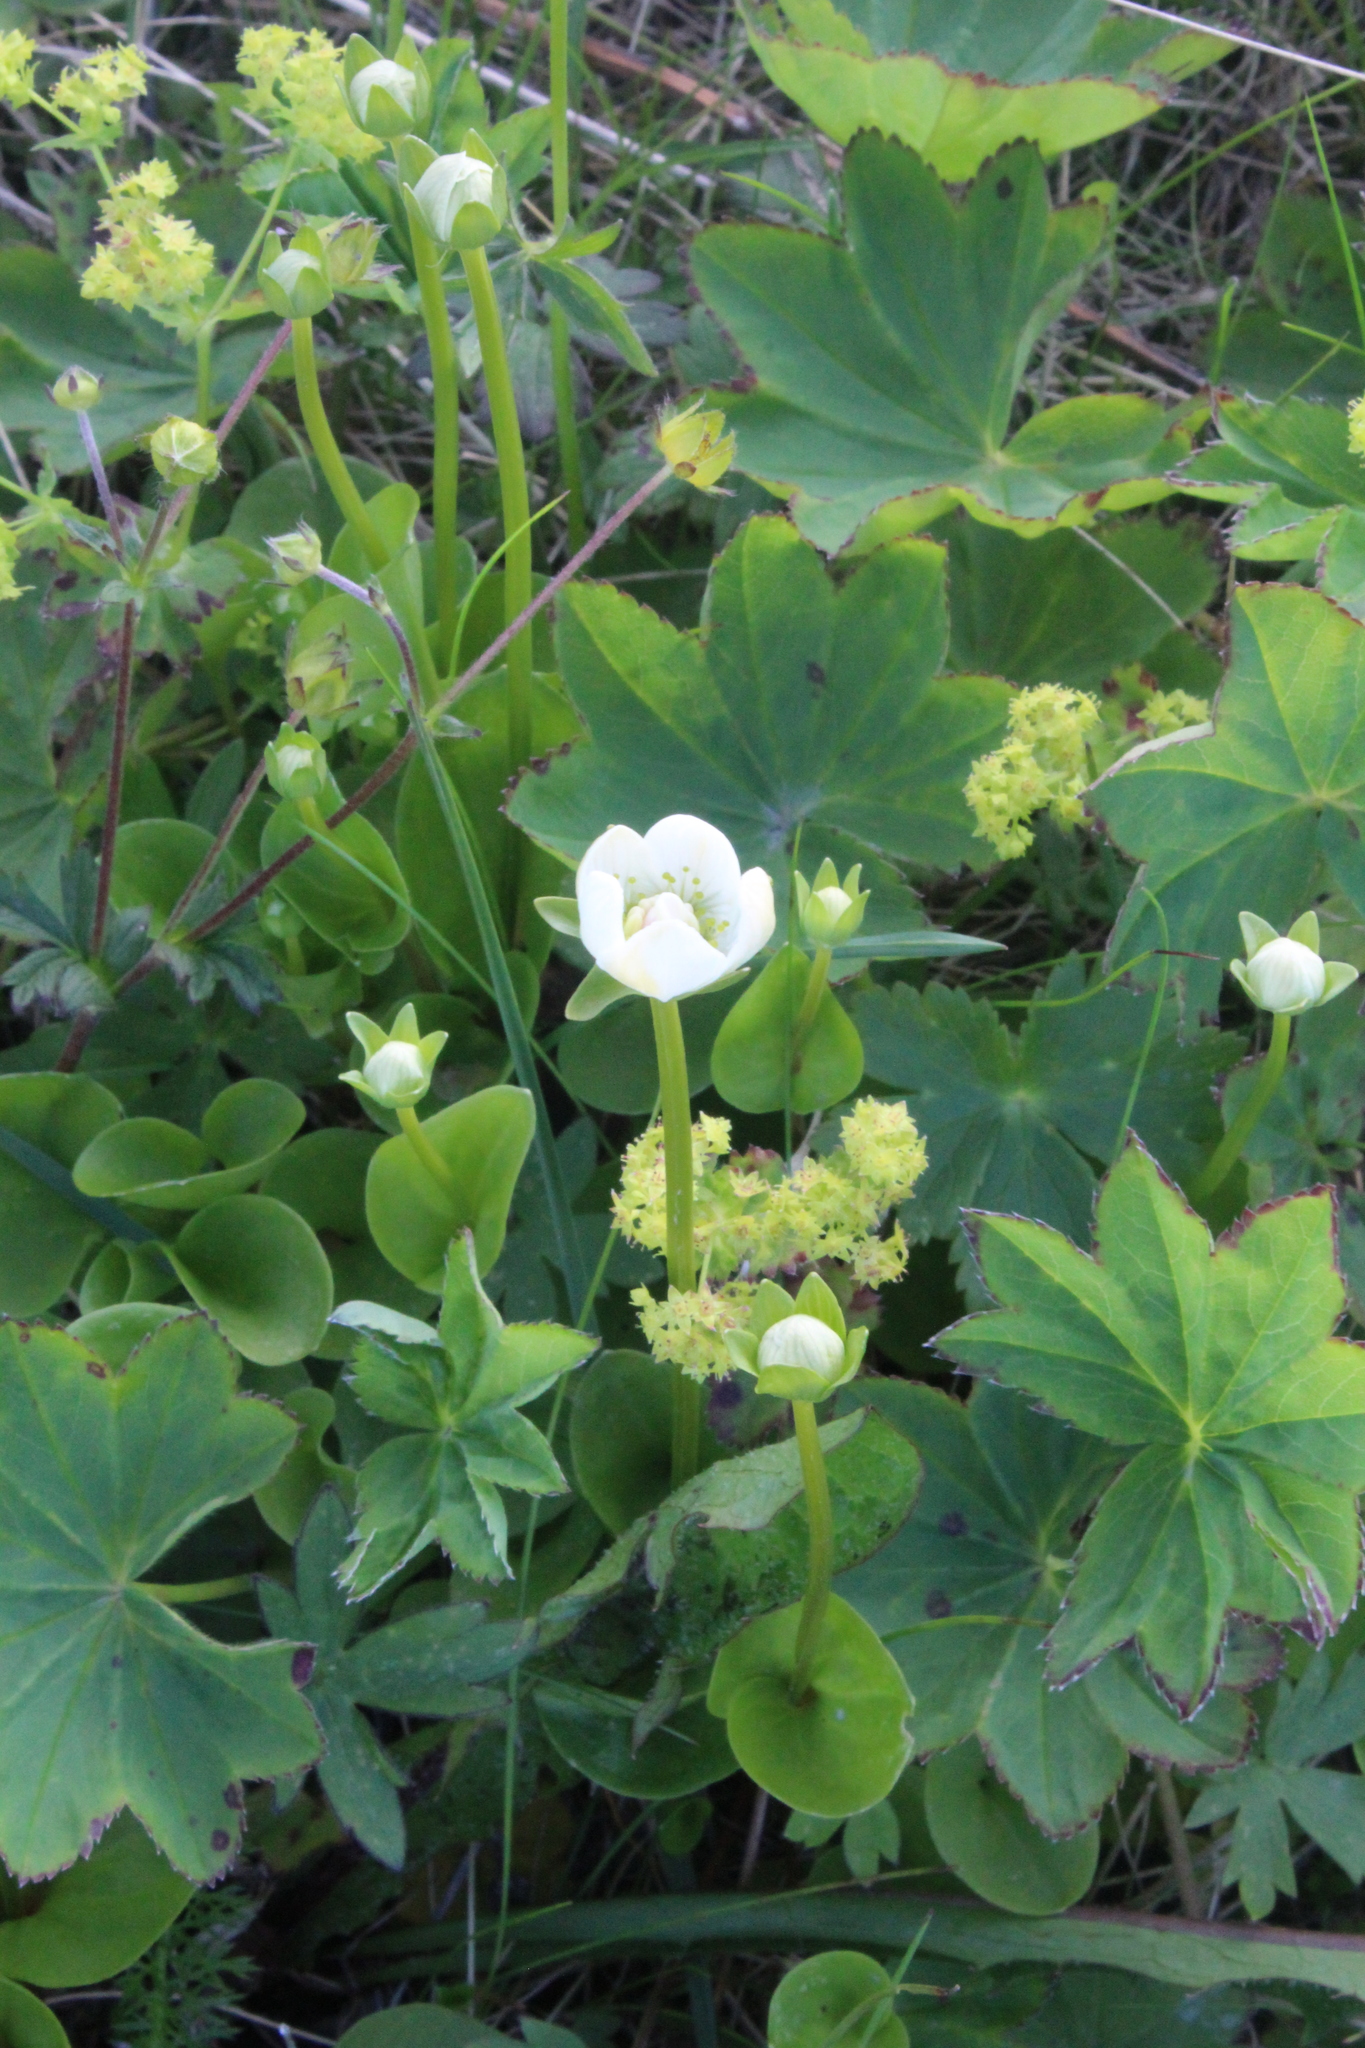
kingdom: Plantae
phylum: Tracheophyta
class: Magnoliopsida
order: Celastrales
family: Parnassiaceae
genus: Parnassia
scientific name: Parnassia palustris
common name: Grass-of-parnassus
